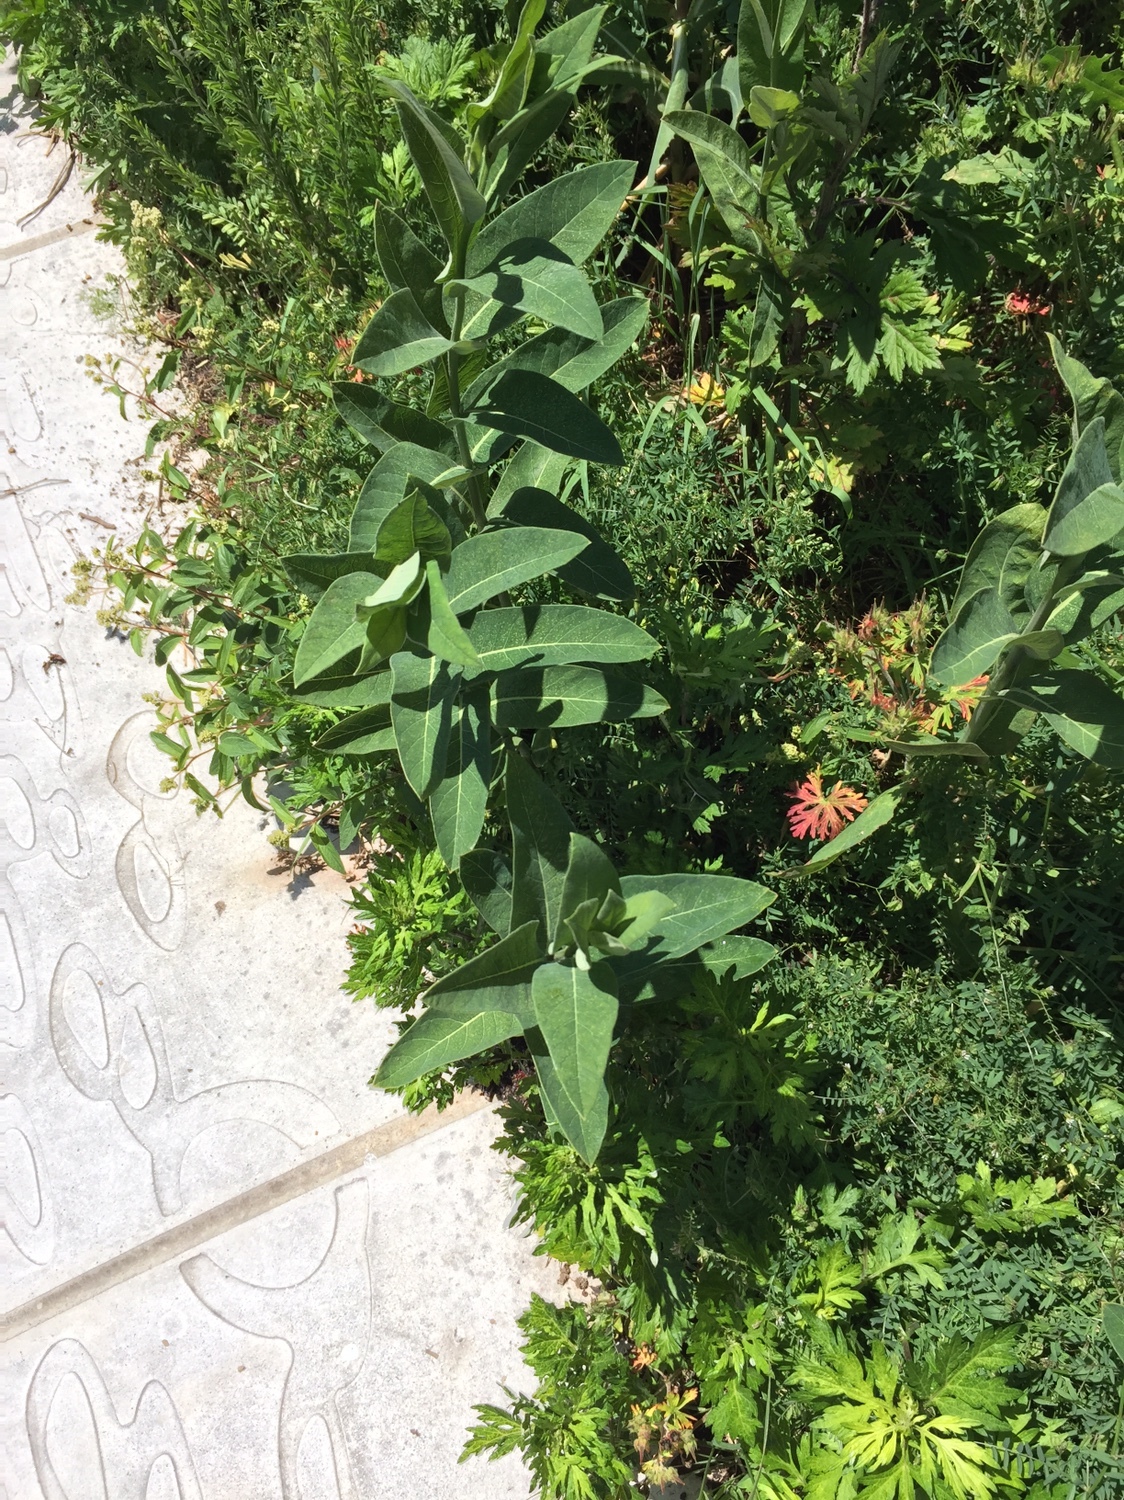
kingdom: Plantae
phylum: Tracheophyta
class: Magnoliopsida
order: Gentianales
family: Apocynaceae
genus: Asclepias
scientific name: Asclepias syriaca
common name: Common milkweed
